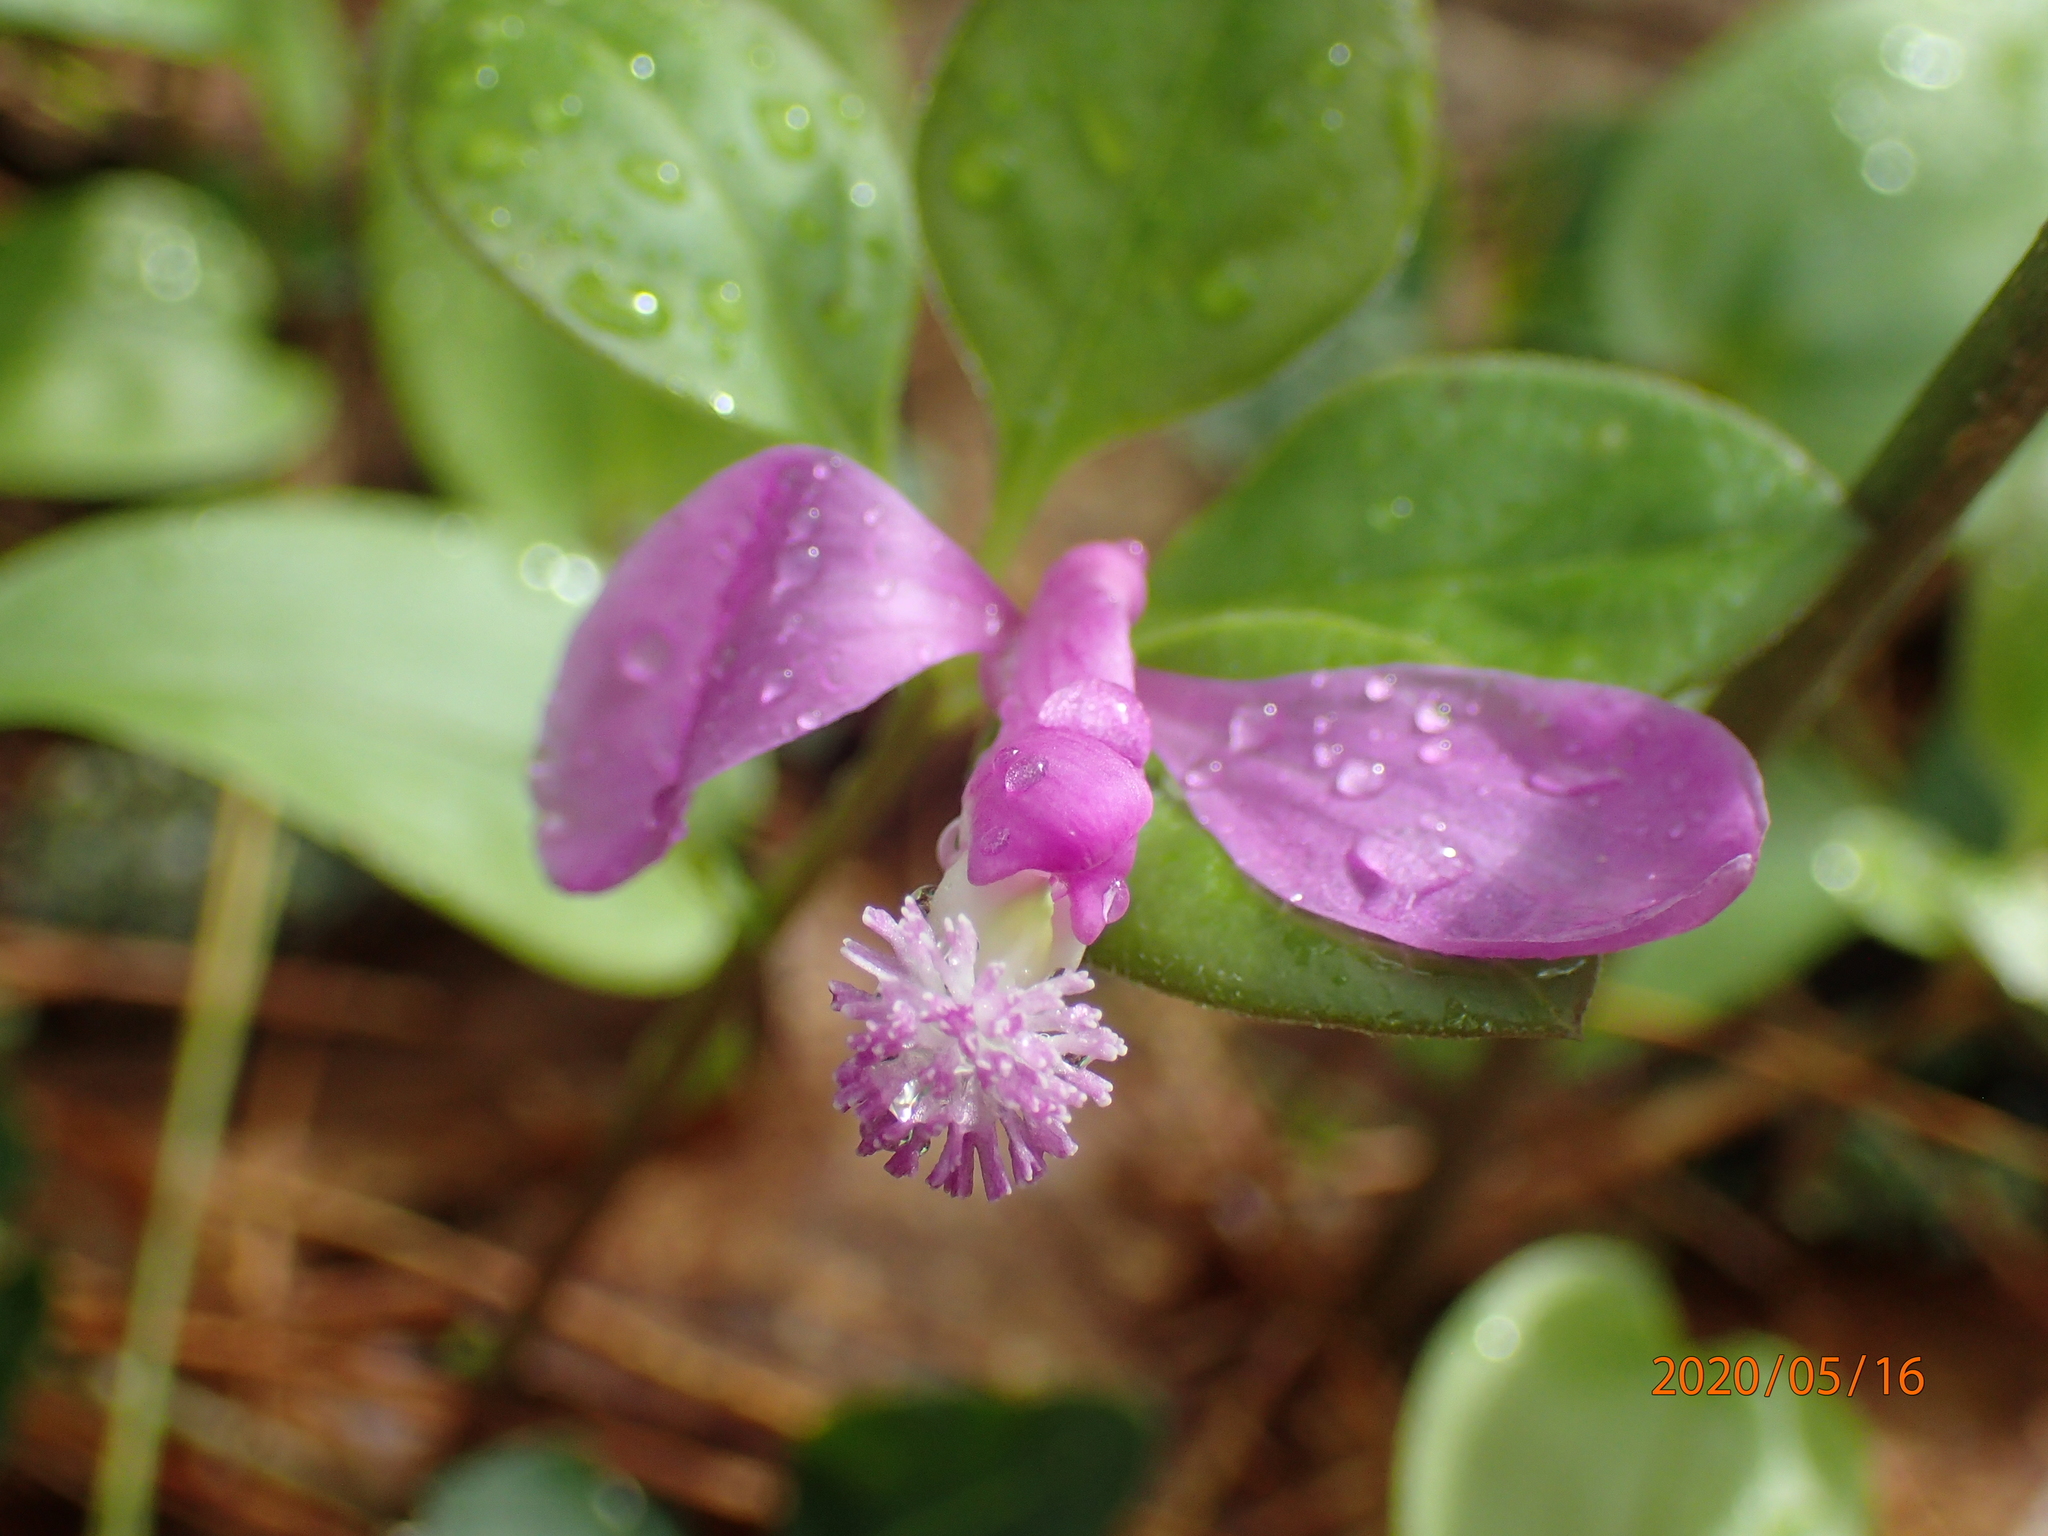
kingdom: Plantae
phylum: Tracheophyta
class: Magnoliopsida
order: Fabales
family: Polygalaceae
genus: Polygaloides
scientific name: Polygaloides paucifolia
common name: Bird-on-the-wing
